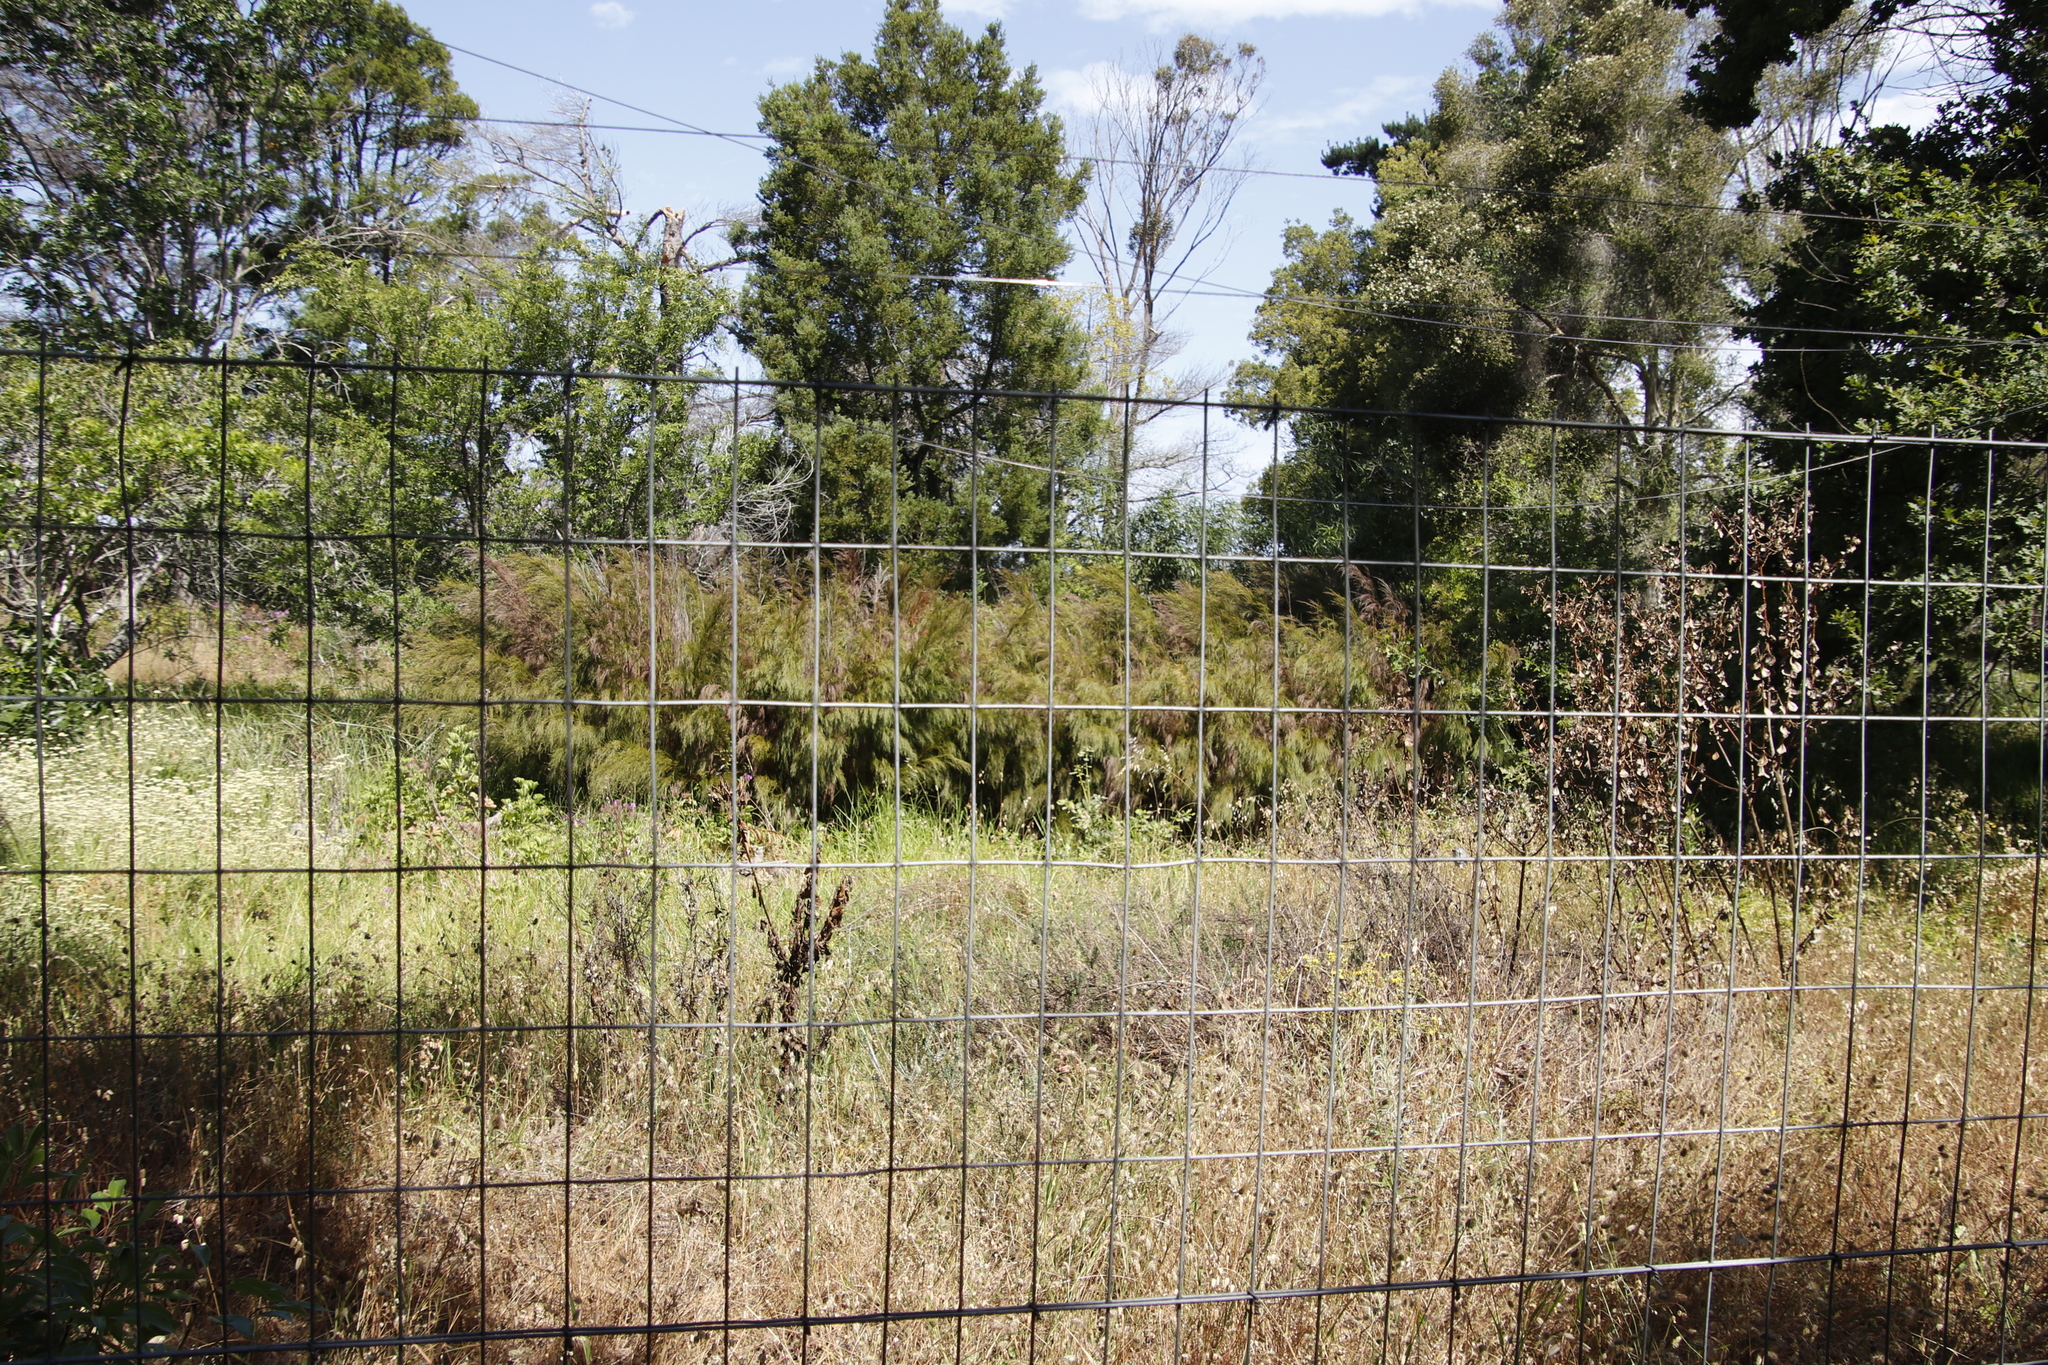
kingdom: Plantae
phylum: Tracheophyta
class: Liliopsida
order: Poales
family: Restionaceae
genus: Restio
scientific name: Restio paniculatus
